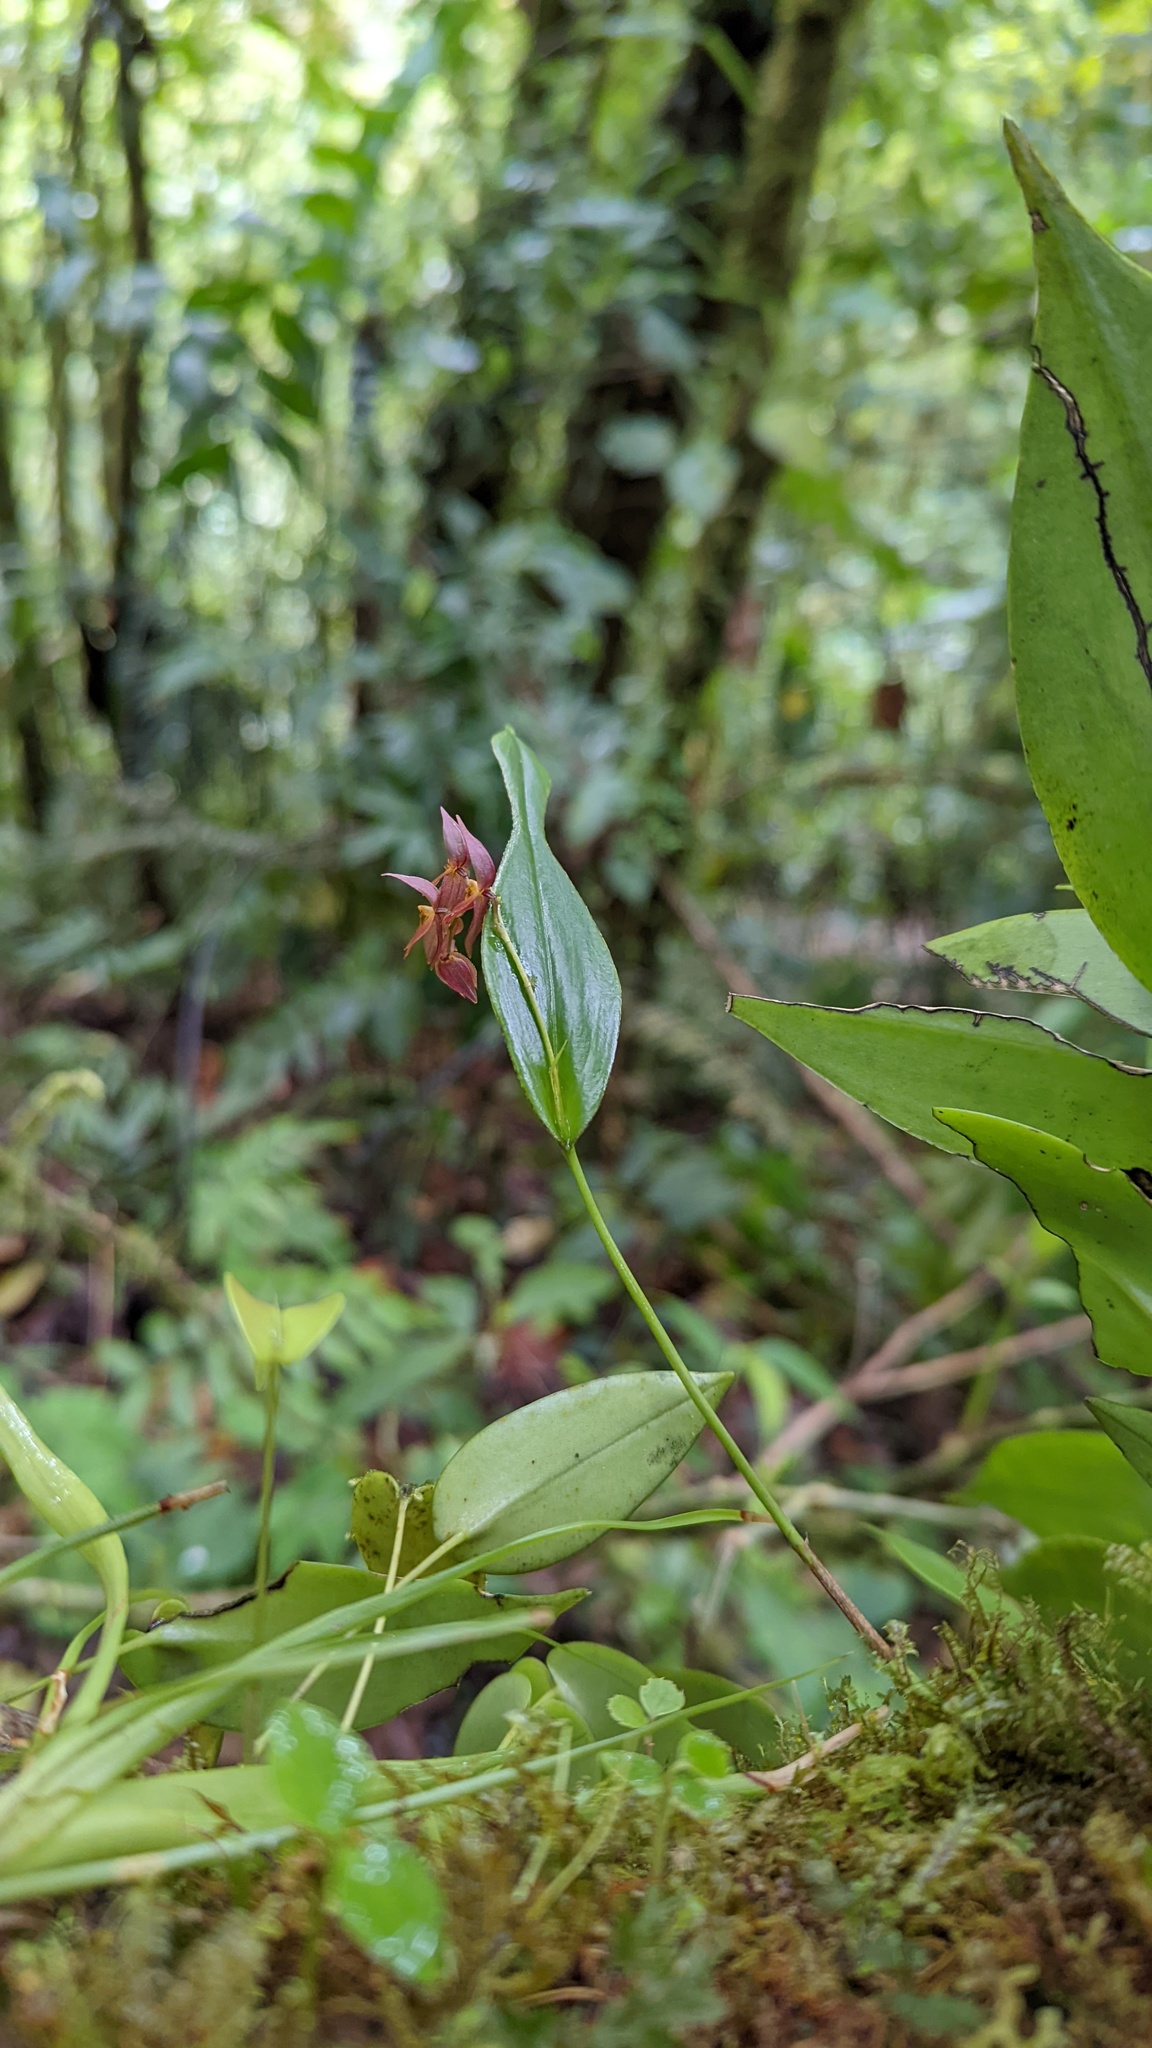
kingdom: Plantae
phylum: Tracheophyta
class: Liliopsida
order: Asparagales
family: Orchidaceae
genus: Pleurothallis
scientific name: Pleurothallis rowleei
